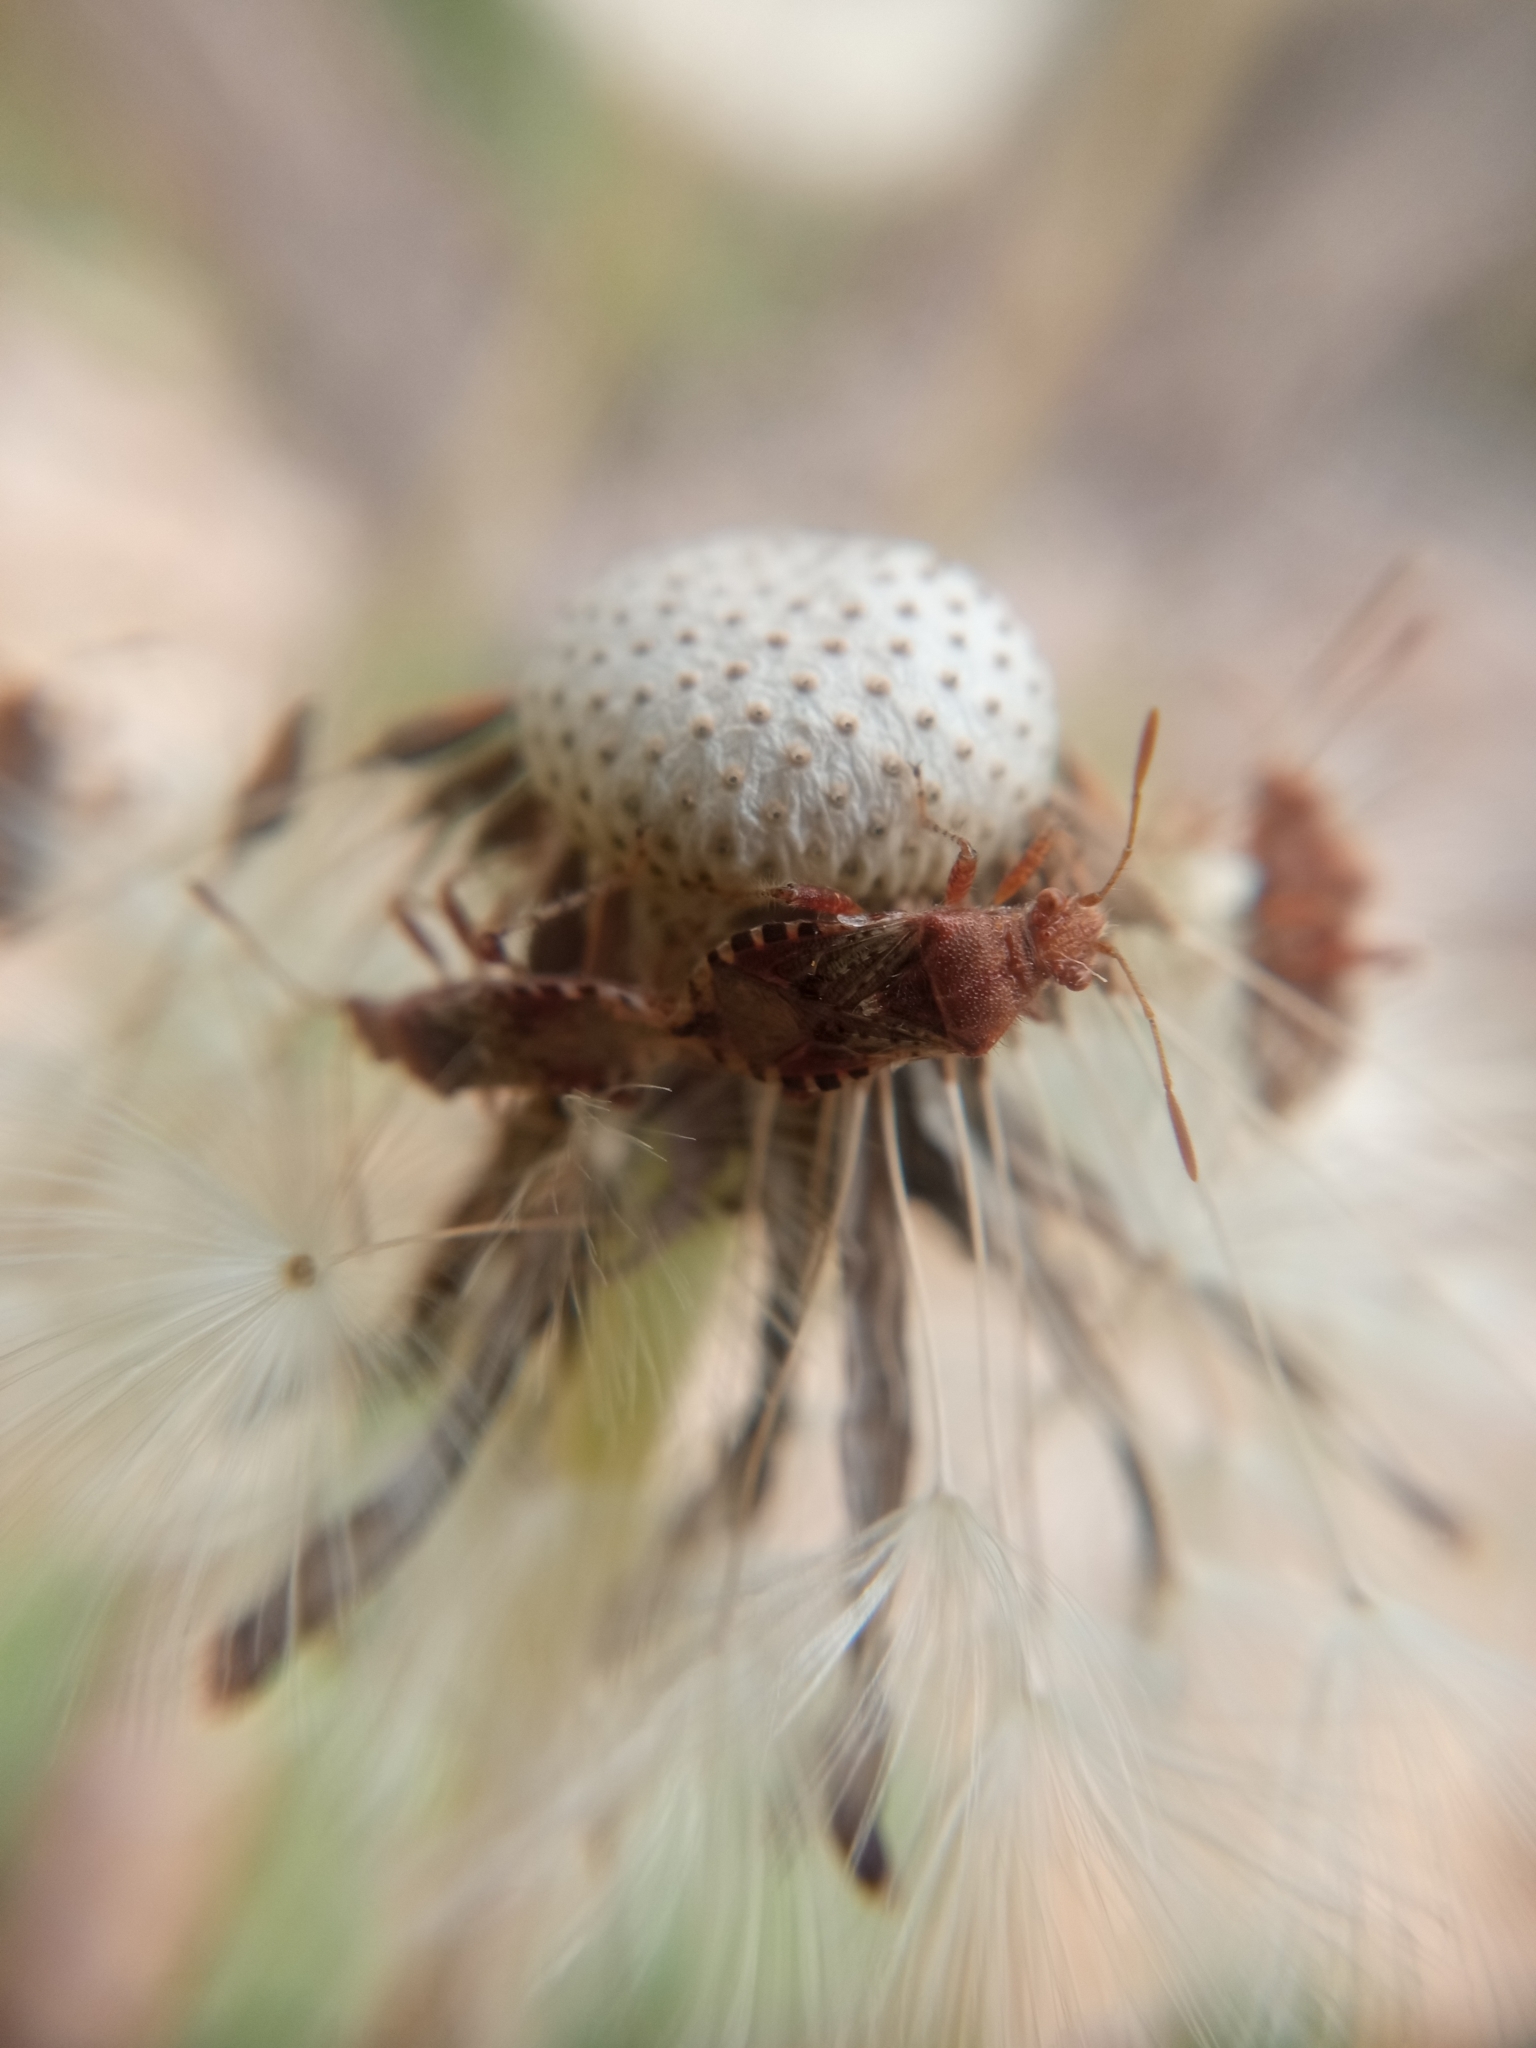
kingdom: Animalia
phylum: Arthropoda
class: Insecta
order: Hemiptera
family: Rhopalidae
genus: Rhopalus
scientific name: Rhopalus subrufus
